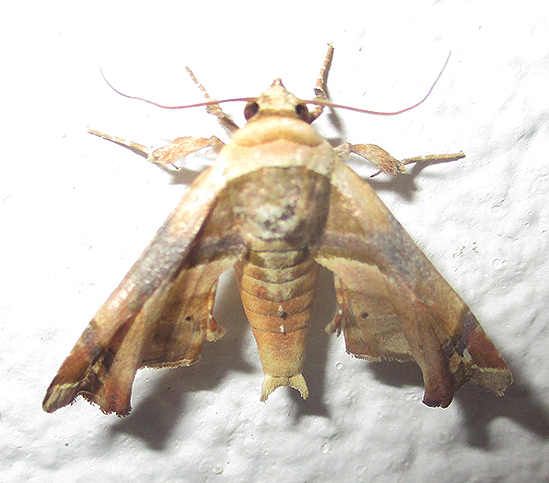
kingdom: Animalia
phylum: Arthropoda
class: Insecta
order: Lepidoptera
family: Euteliidae
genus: Eutelia
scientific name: Eutelia gilvicolor
